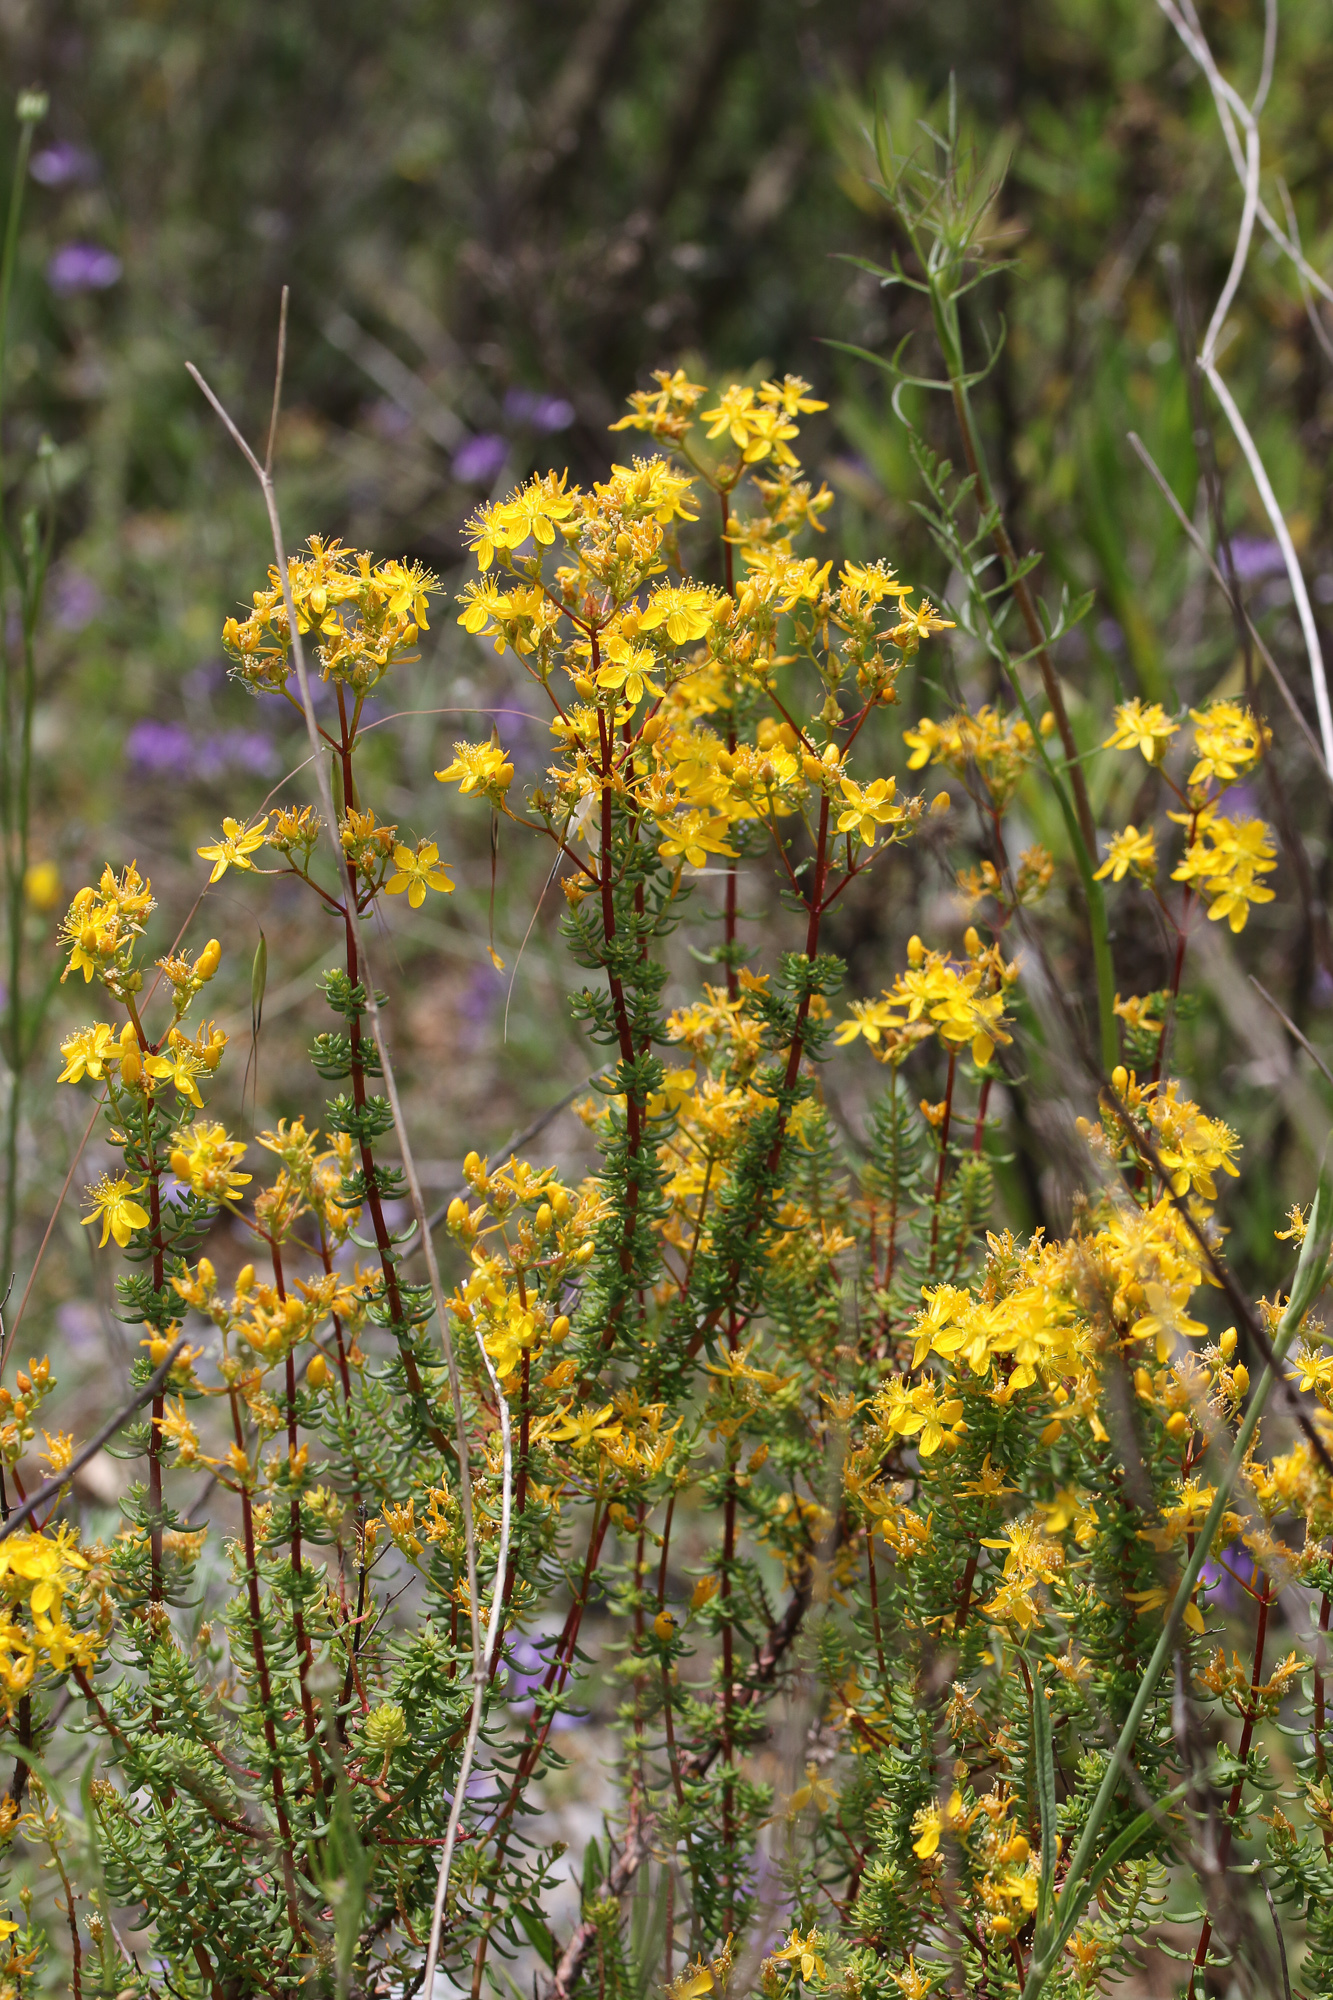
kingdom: Plantae
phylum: Tracheophyta
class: Magnoliopsida
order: Malpighiales
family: Hypericaceae
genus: Hypericum
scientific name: Hypericum empetrifolium
